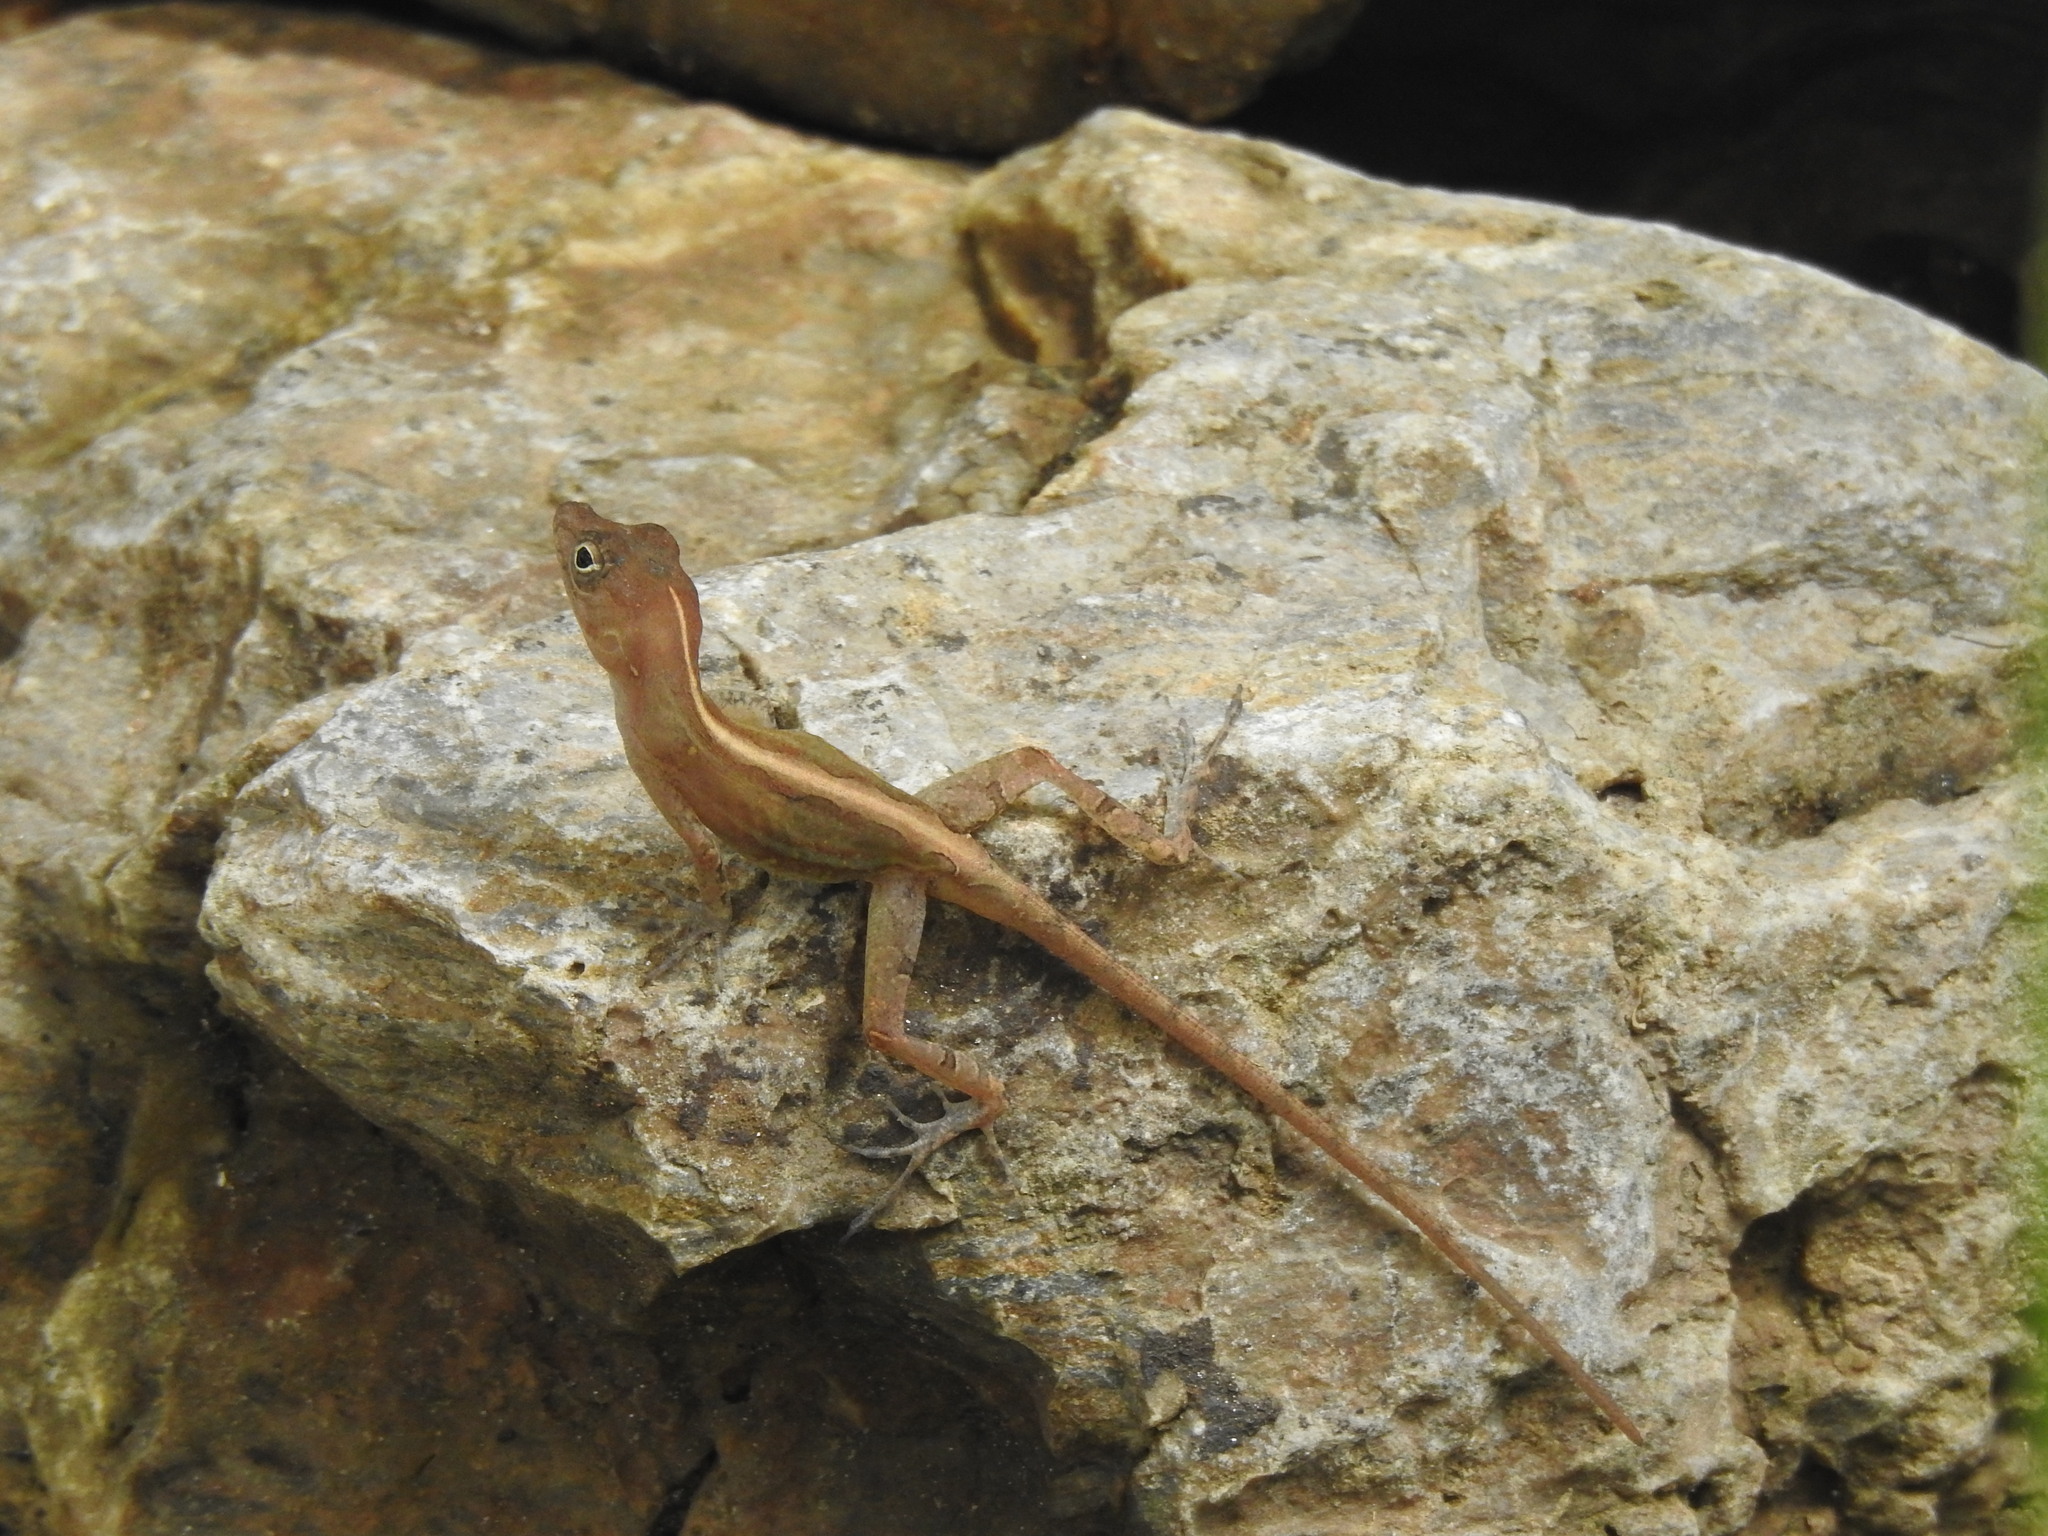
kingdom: Animalia
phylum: Chordata
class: Squamata
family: Dactyloidae
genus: Anolis
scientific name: Anolis hispaniolae
